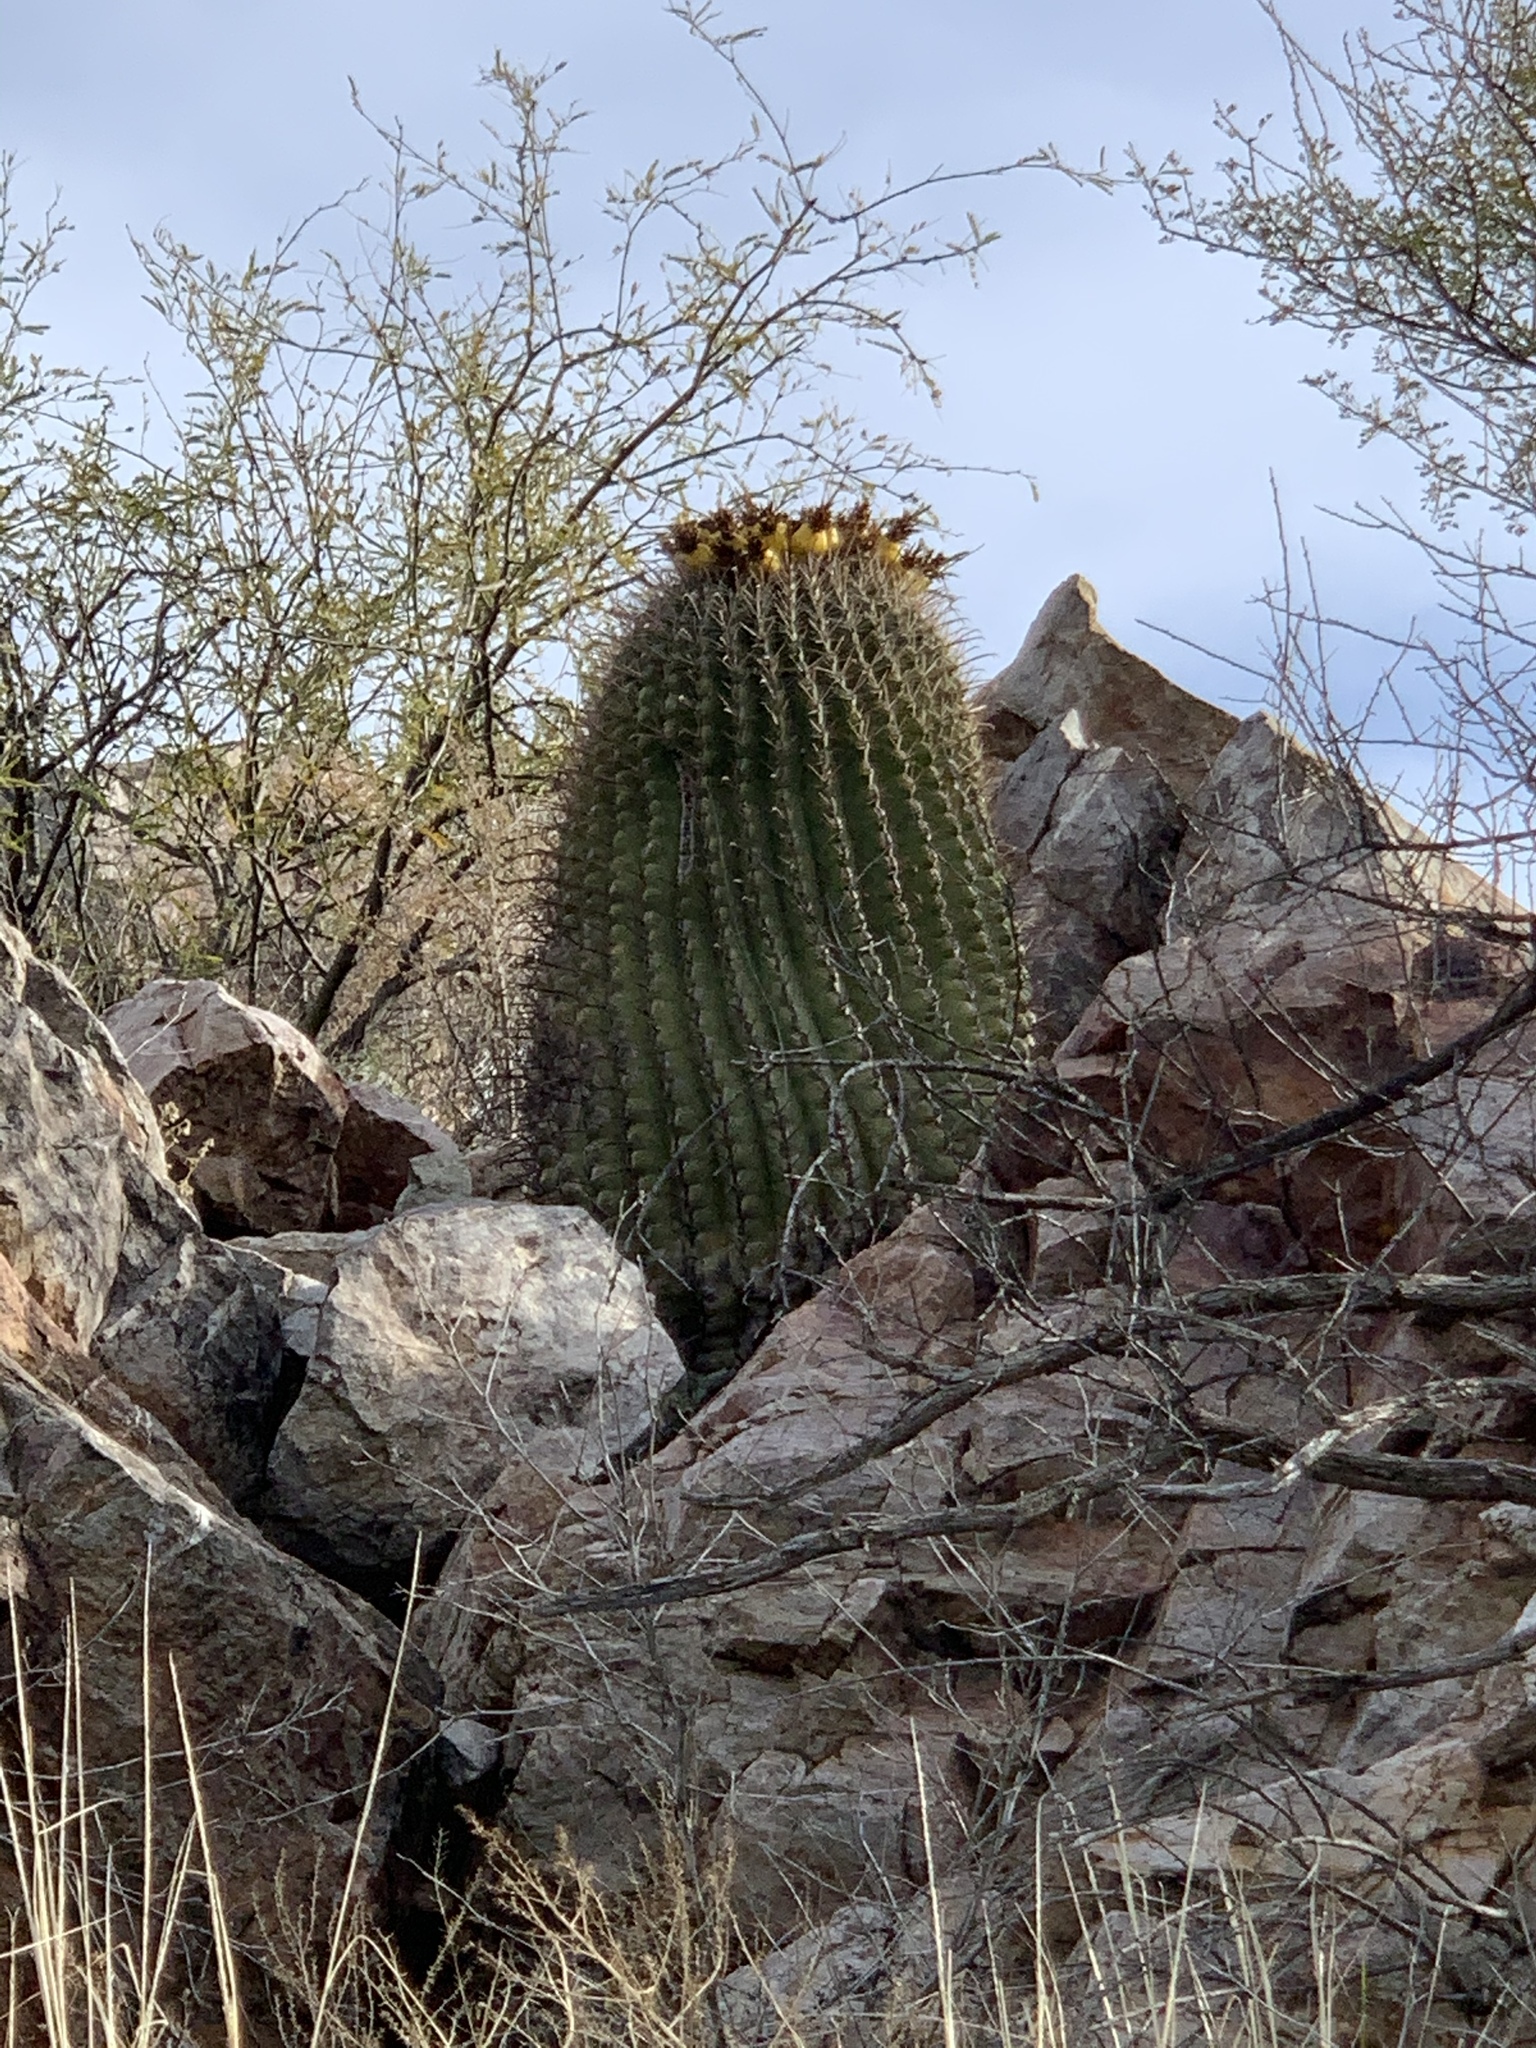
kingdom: Plantae
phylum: Tracheophyta
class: Magnoliopsida
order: Caryophyllales
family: Cactaceae
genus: Ferocactus
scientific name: Ferocactus wislizeni
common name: Candy barrel cactus
